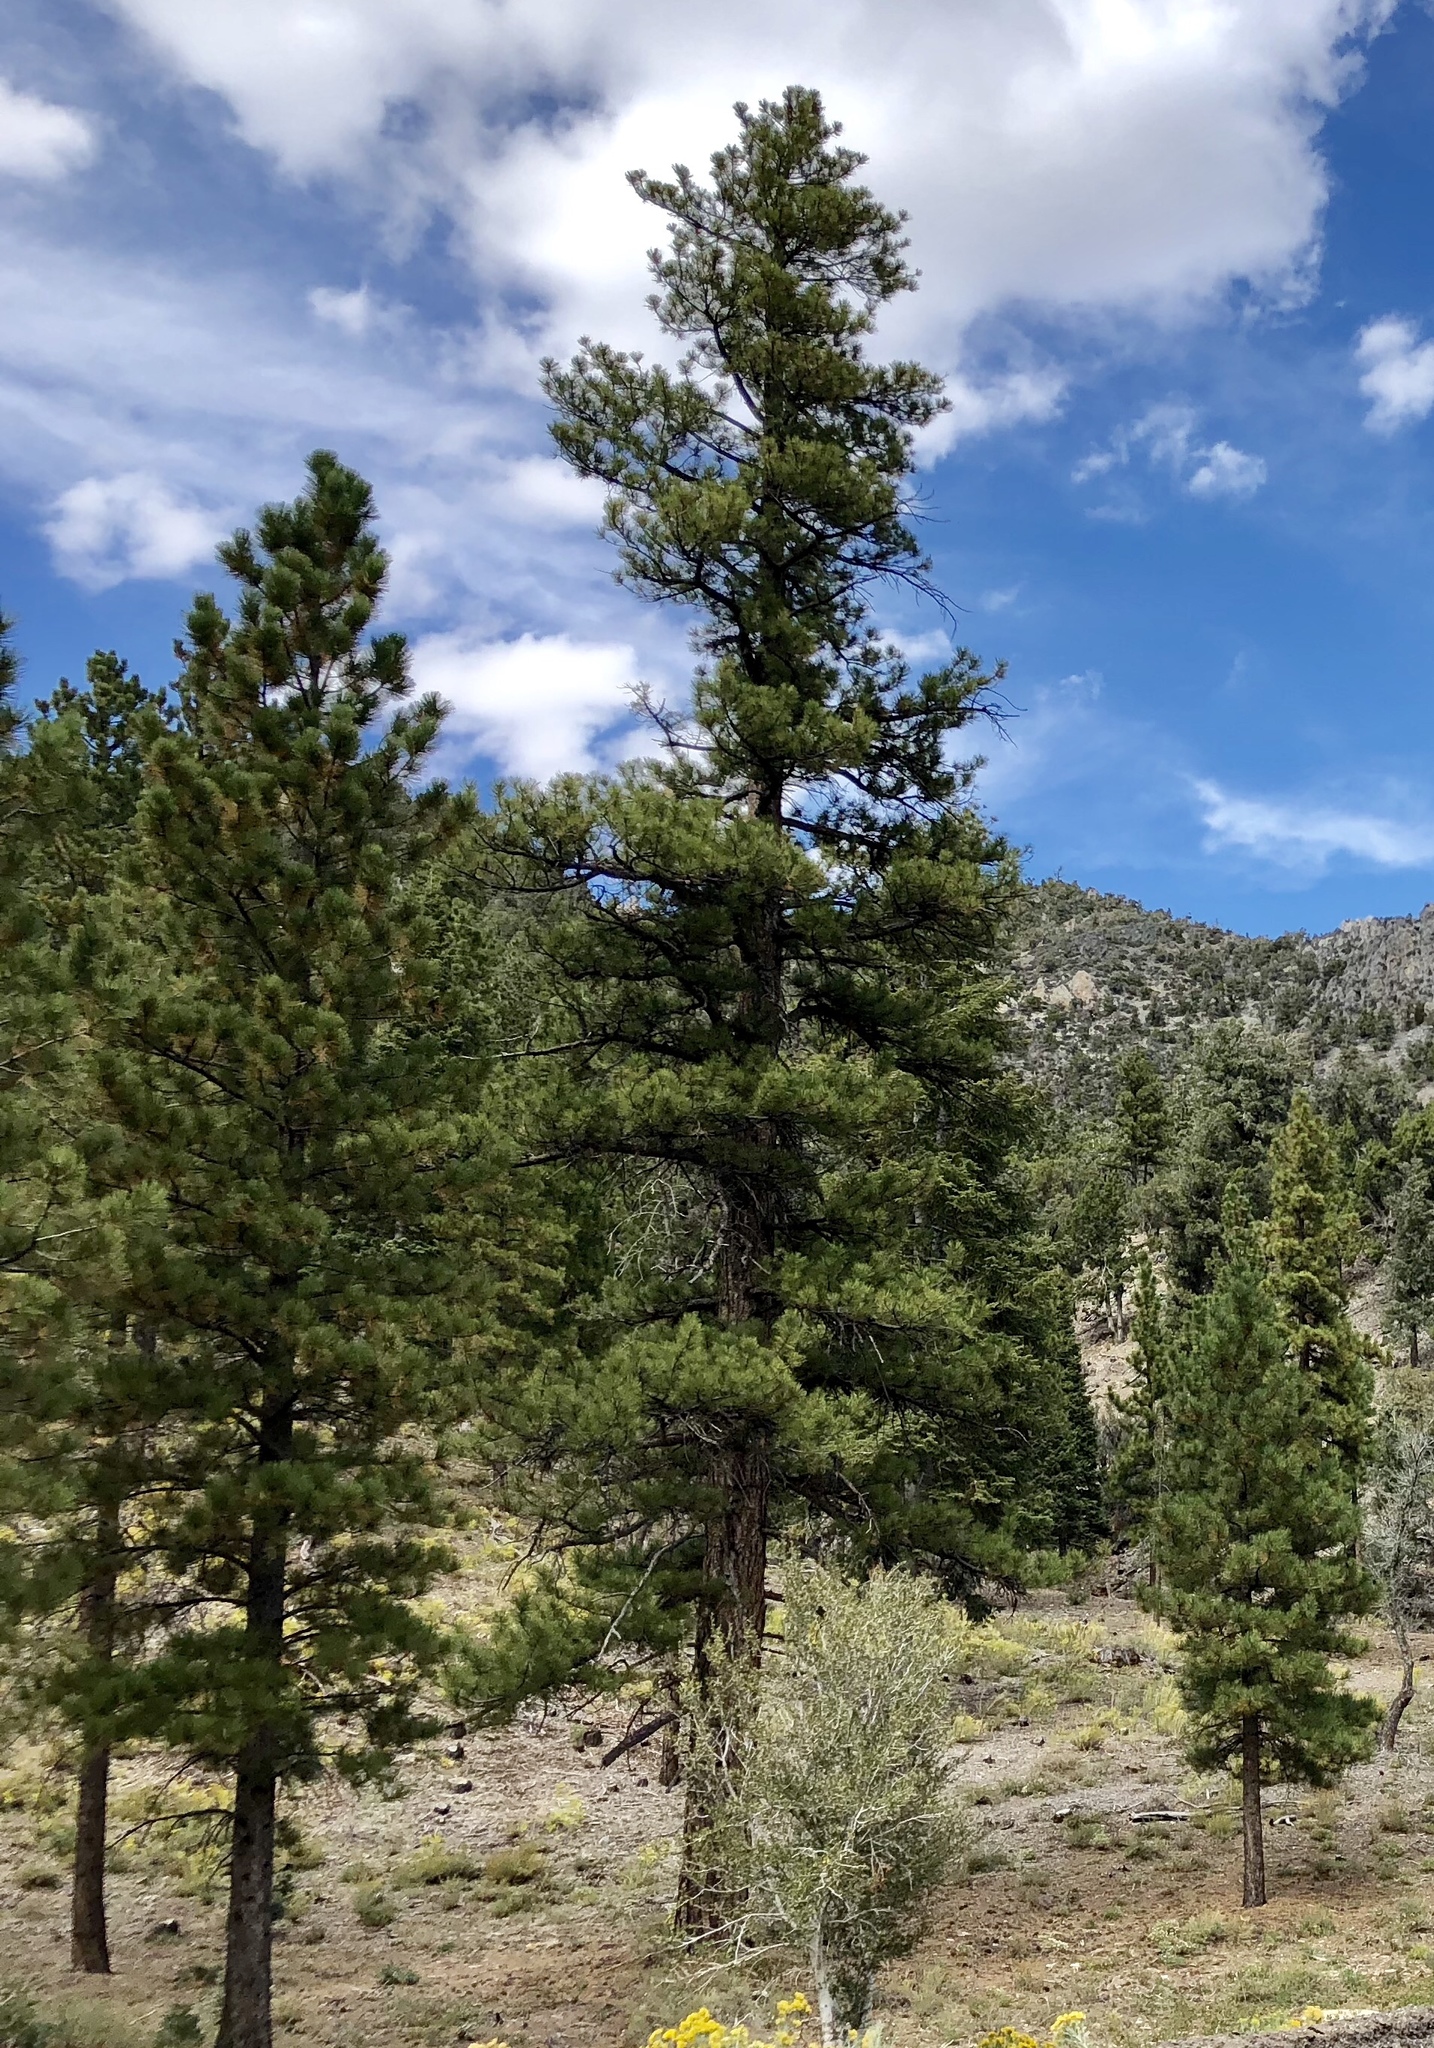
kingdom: Plantae
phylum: Tracheophyta
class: Pinopsida
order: Pinales
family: Pinaceae
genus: Pinus
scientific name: Pinus ponderosa
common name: Western yellow-pine
